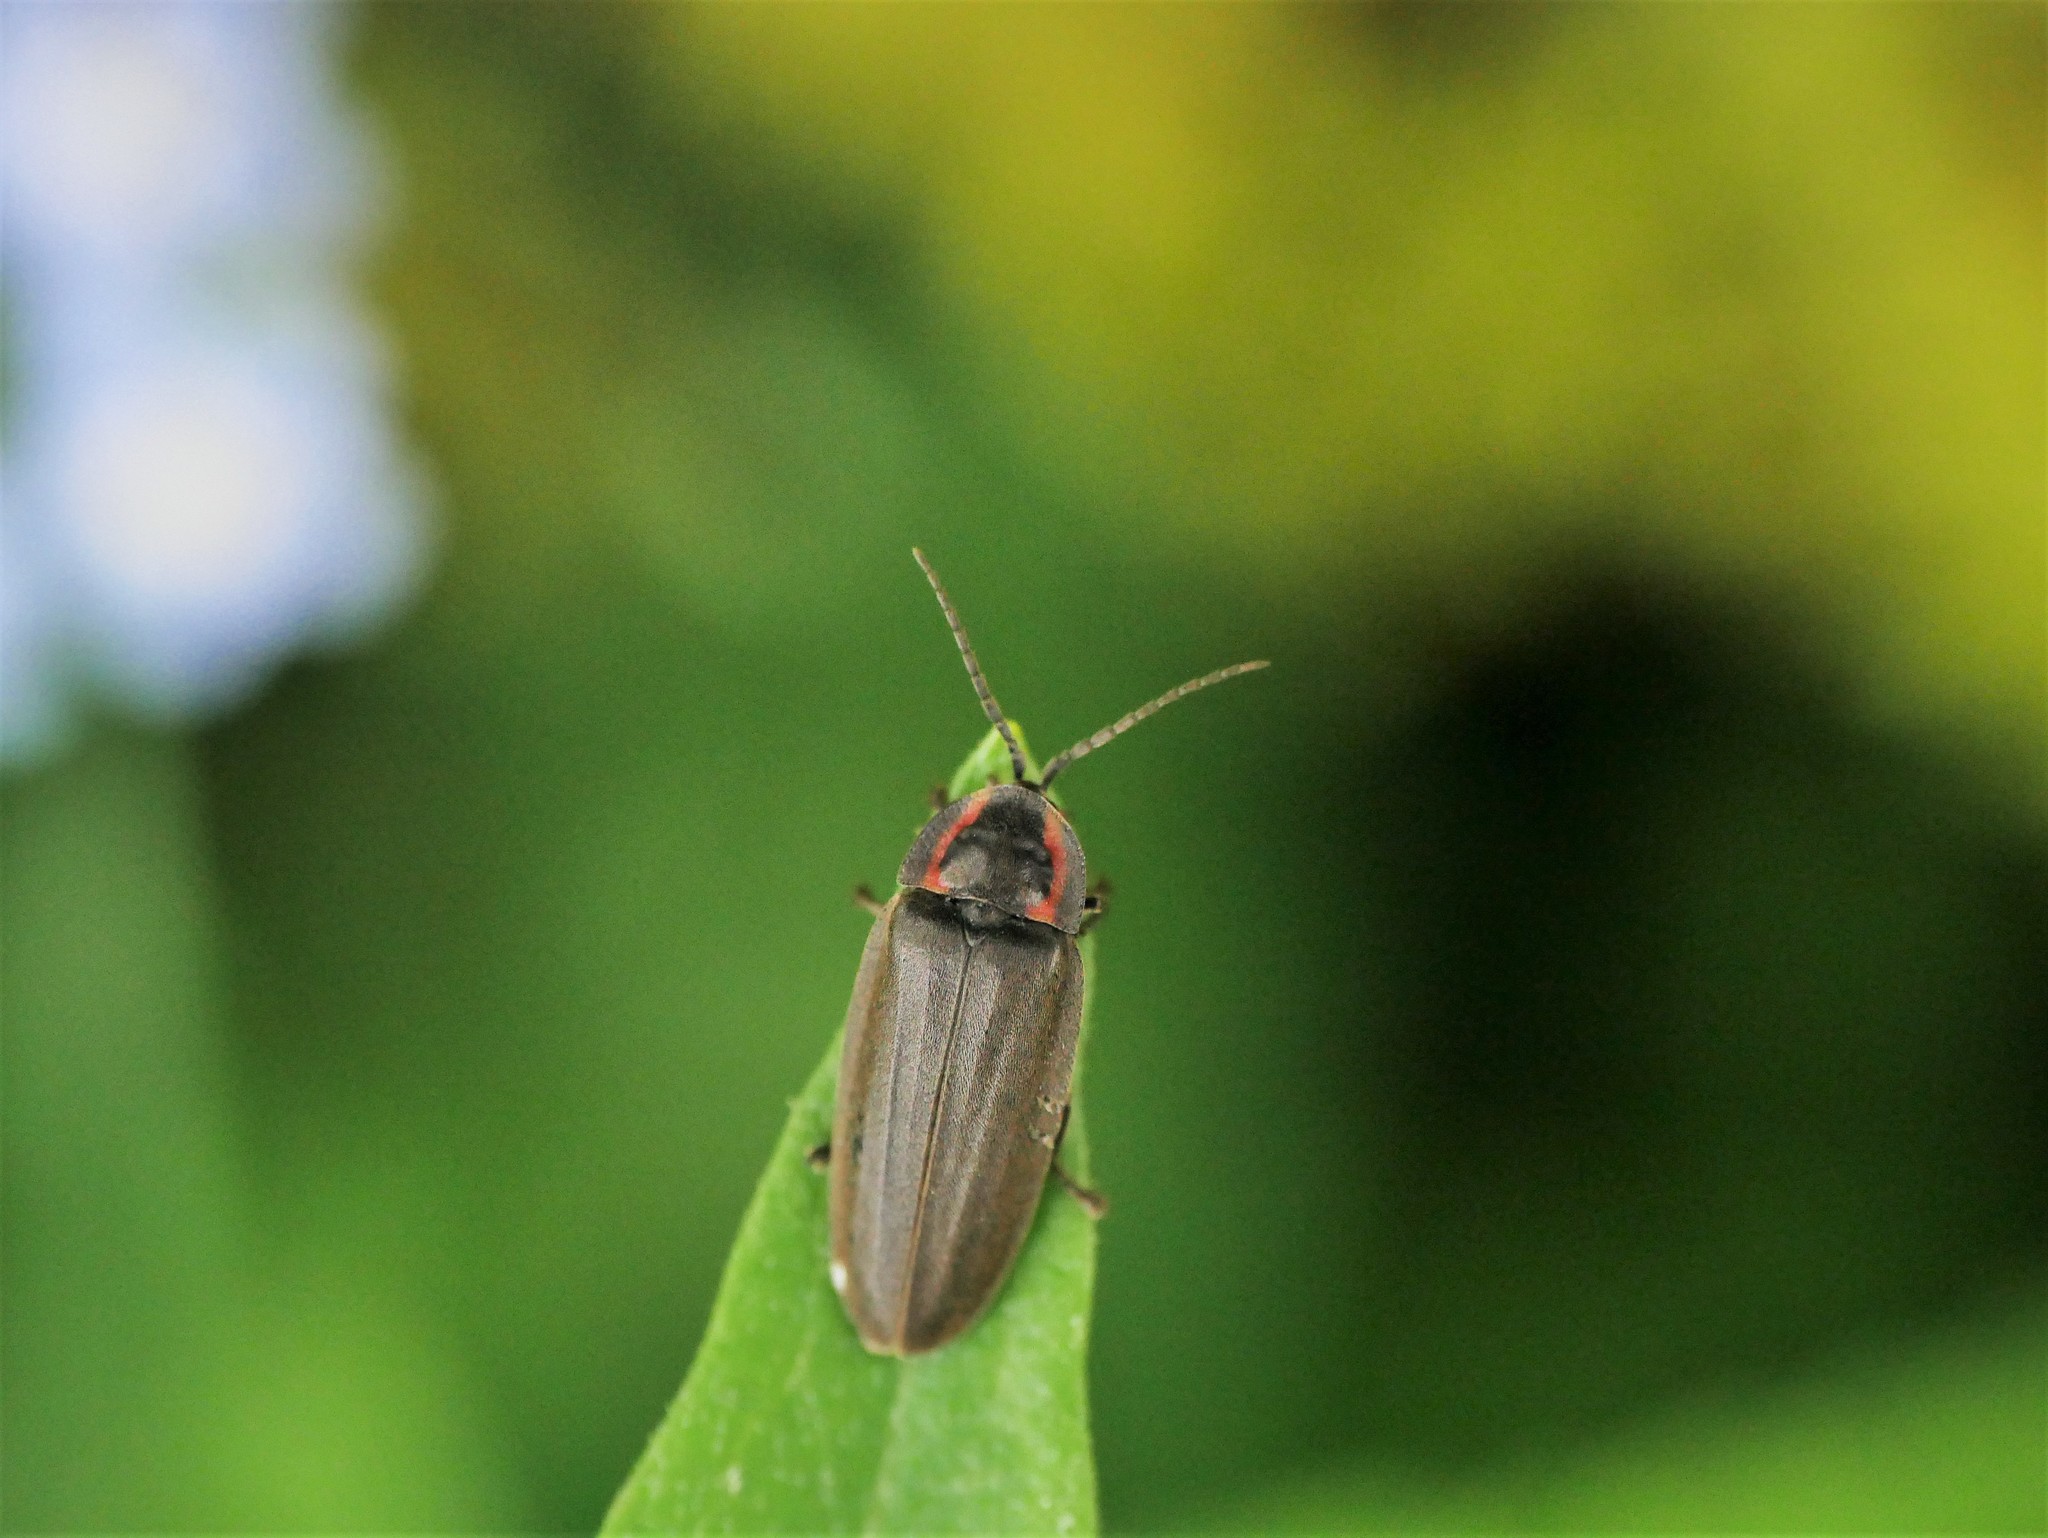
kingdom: Animalia
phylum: Arthropoda
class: Insecta
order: Coleoptera
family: Lampyridae
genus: Photinus
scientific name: Photinus corrusca
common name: Winter firefly
